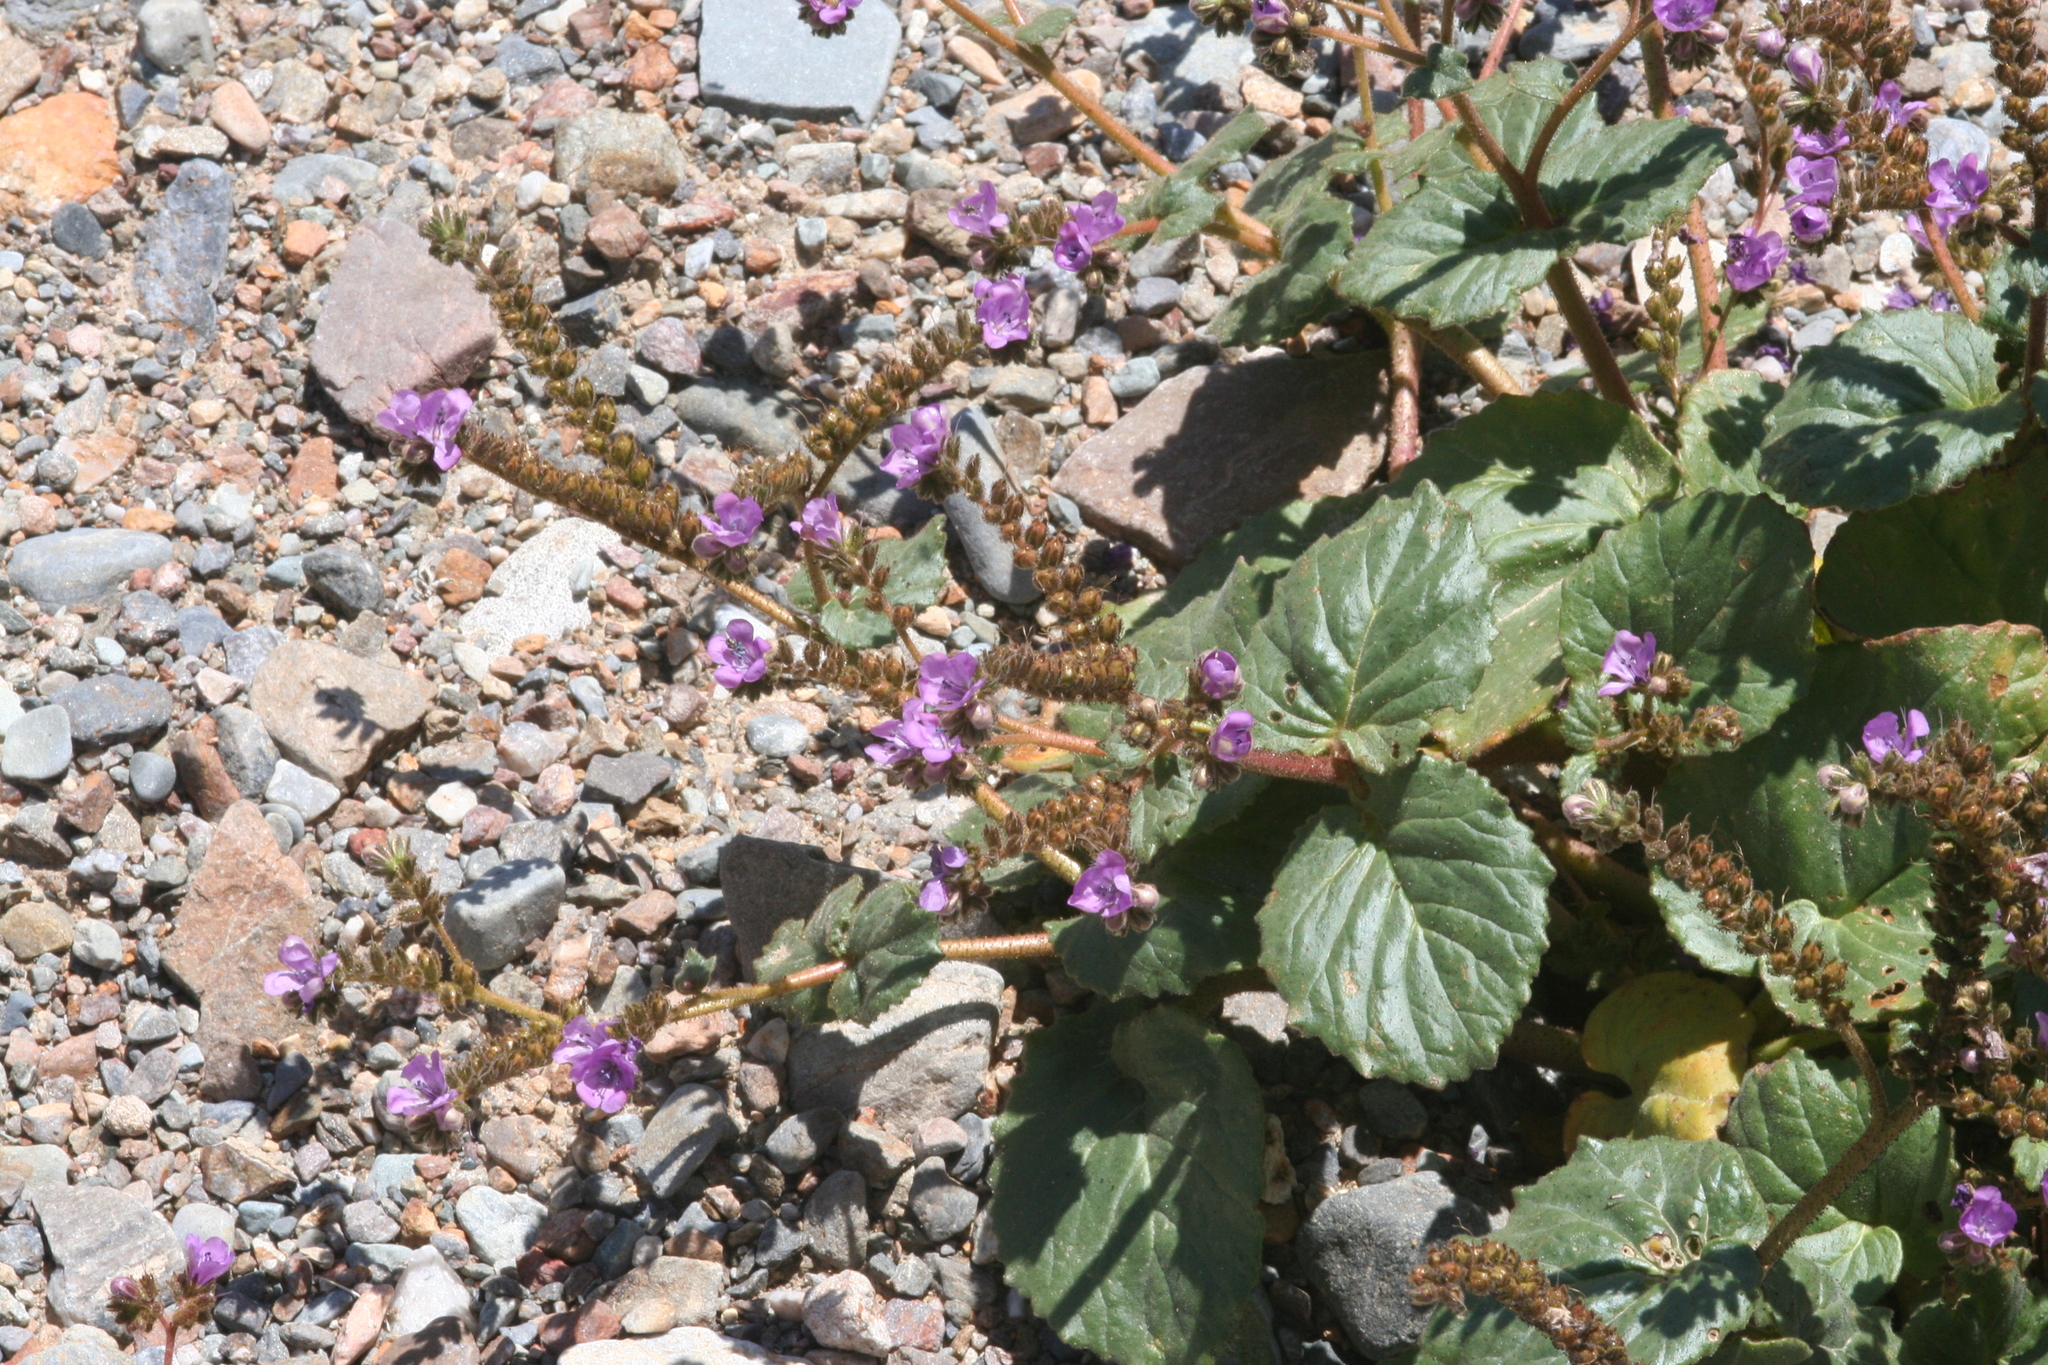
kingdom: Plantae
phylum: Tracheophyta
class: Magnoliopsida
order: Boraginales
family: Hydrophyllaceae
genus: Phacelia
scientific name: Phacelia calthifolia
